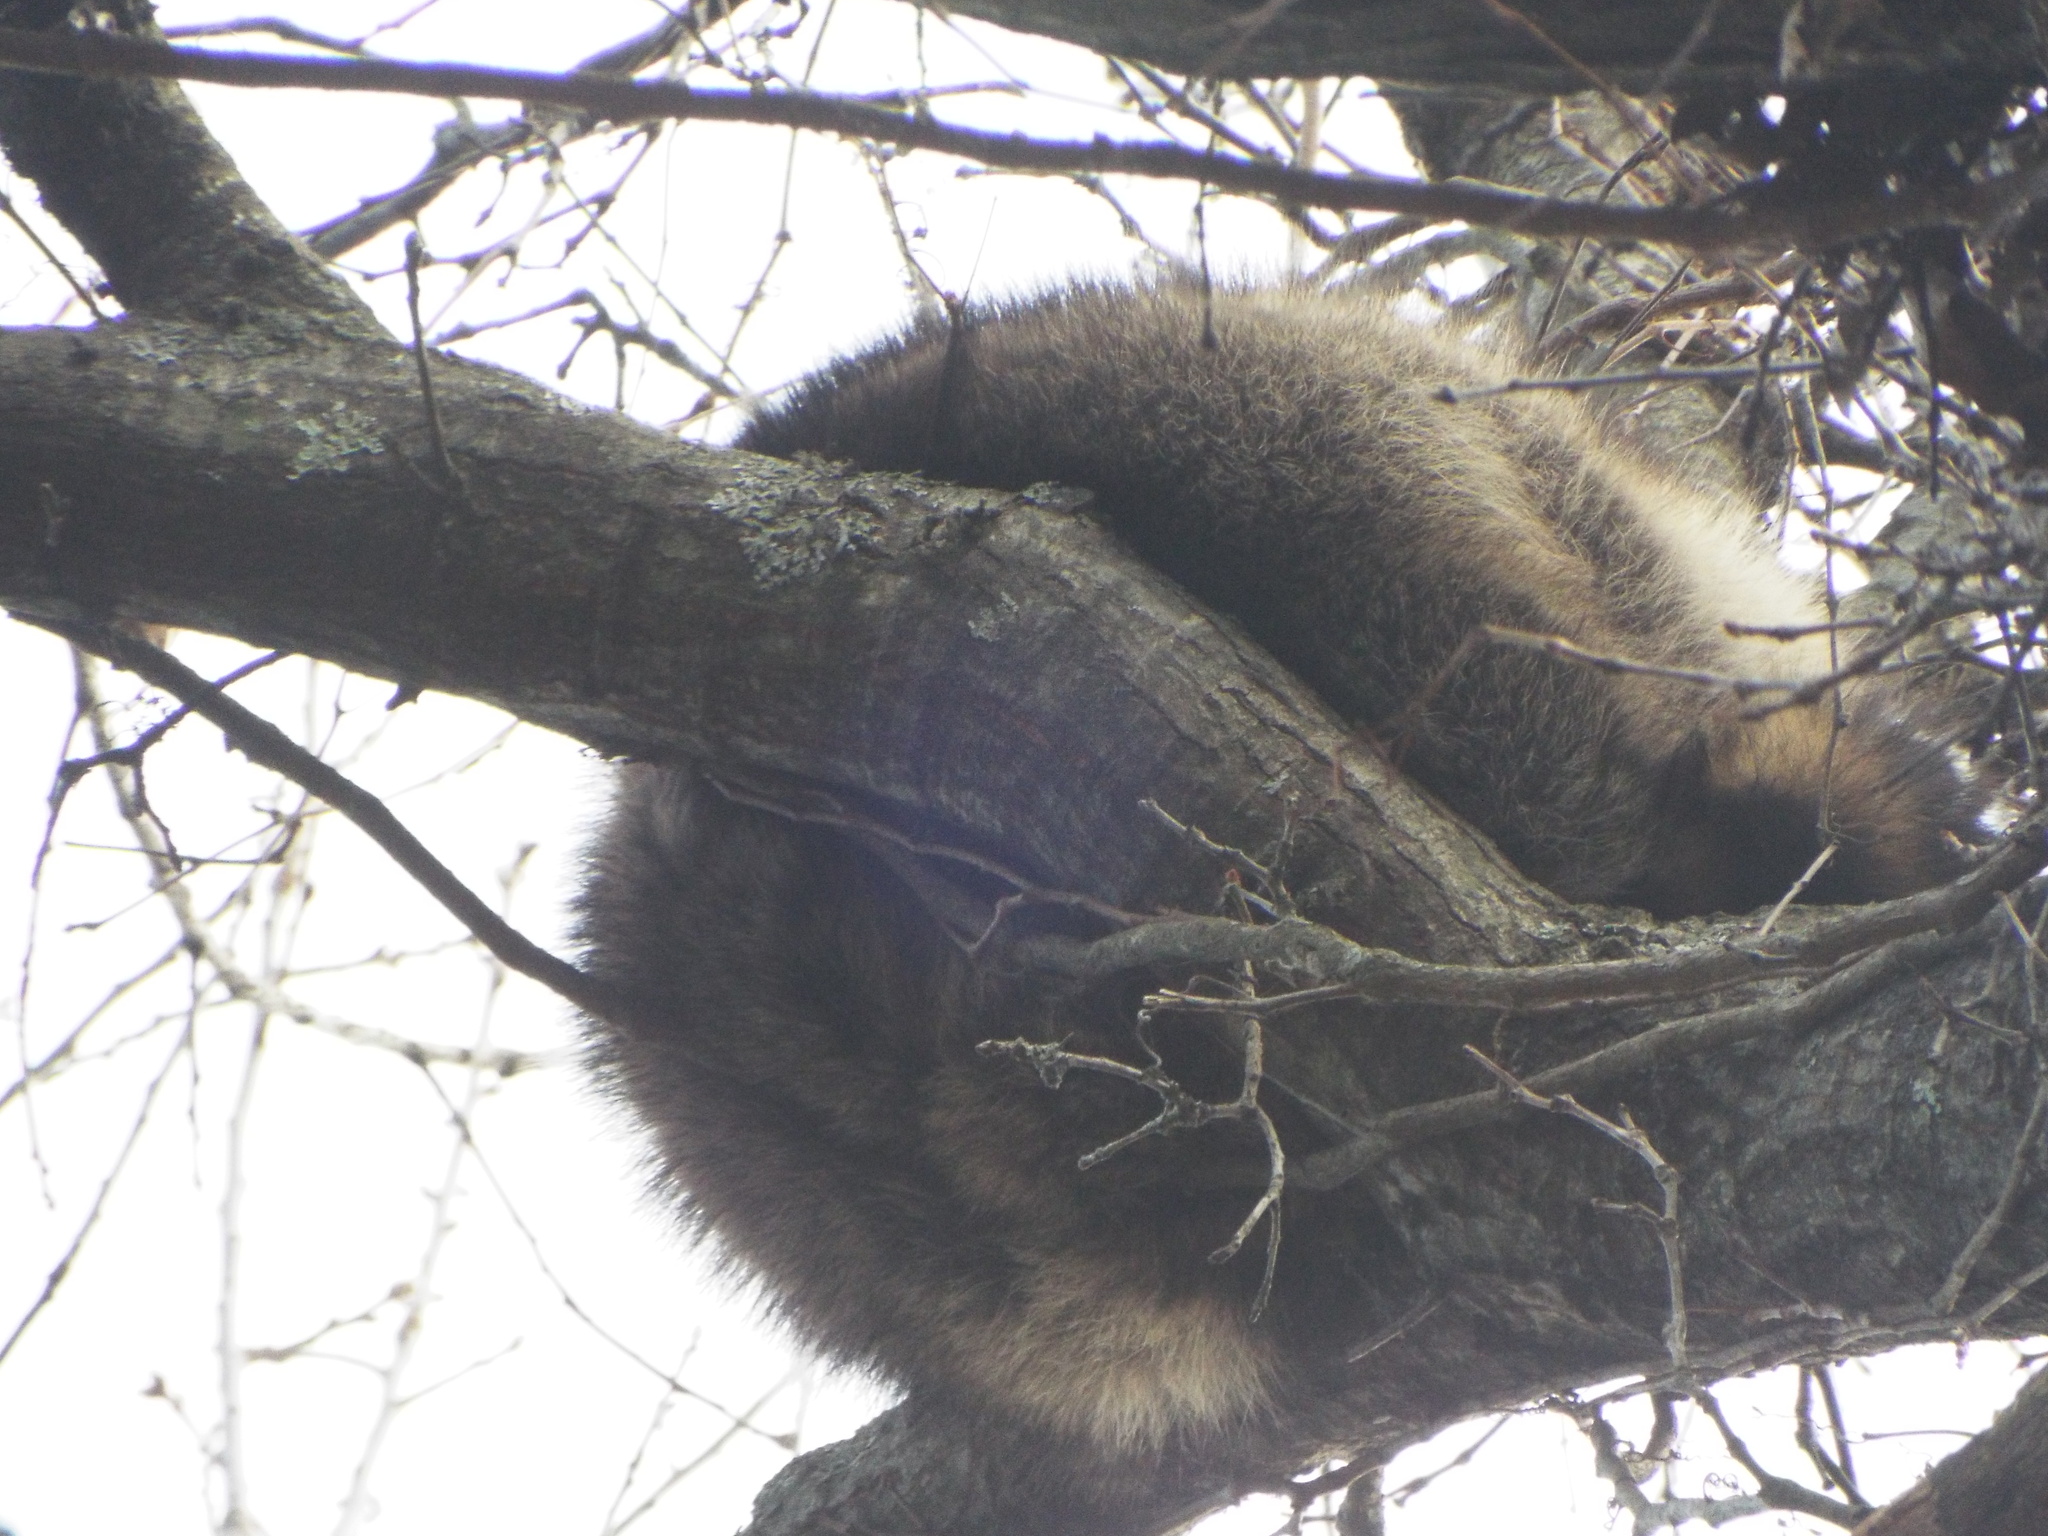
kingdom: Animalia
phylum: Chordata
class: Mammalia
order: Carnivora
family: Procyonidae
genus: Procyon
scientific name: Procyon lotor
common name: Raccoon
